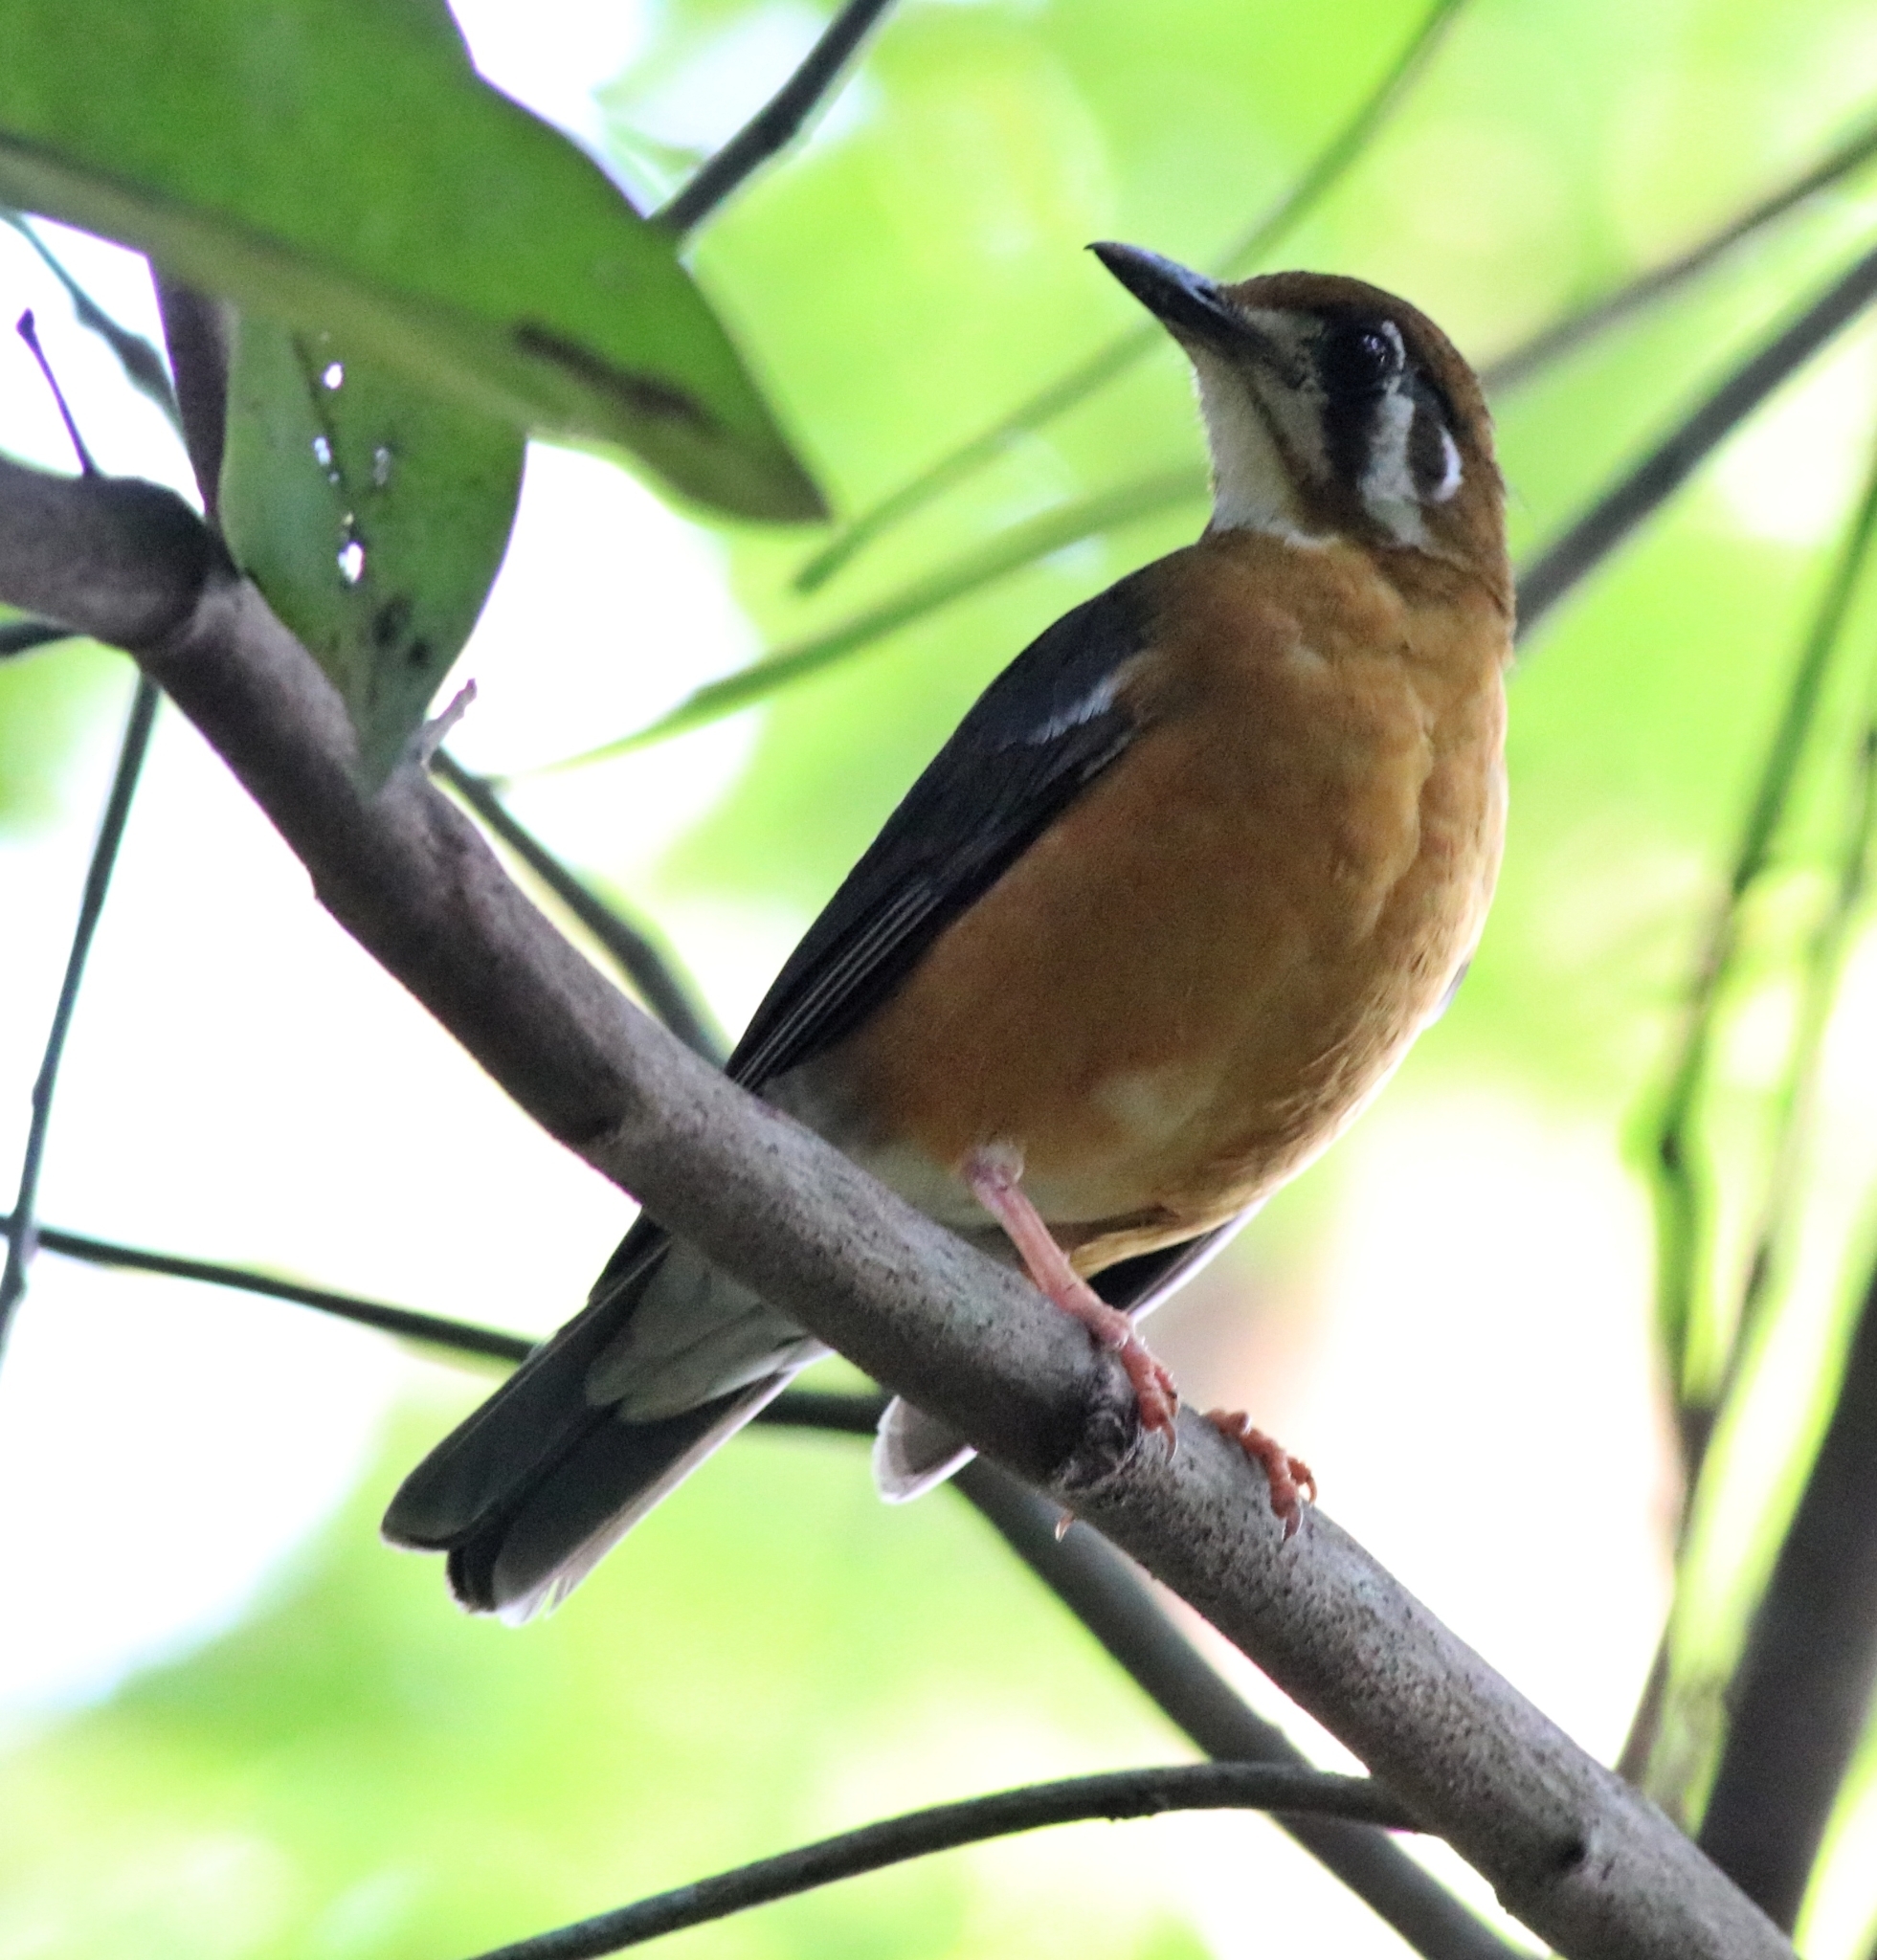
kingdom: Animalia
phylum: Chordata
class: Aves
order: Passeriformes
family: Turdidae
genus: Geokichla
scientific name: Geokichla citrina
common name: Orange-headed thrush
